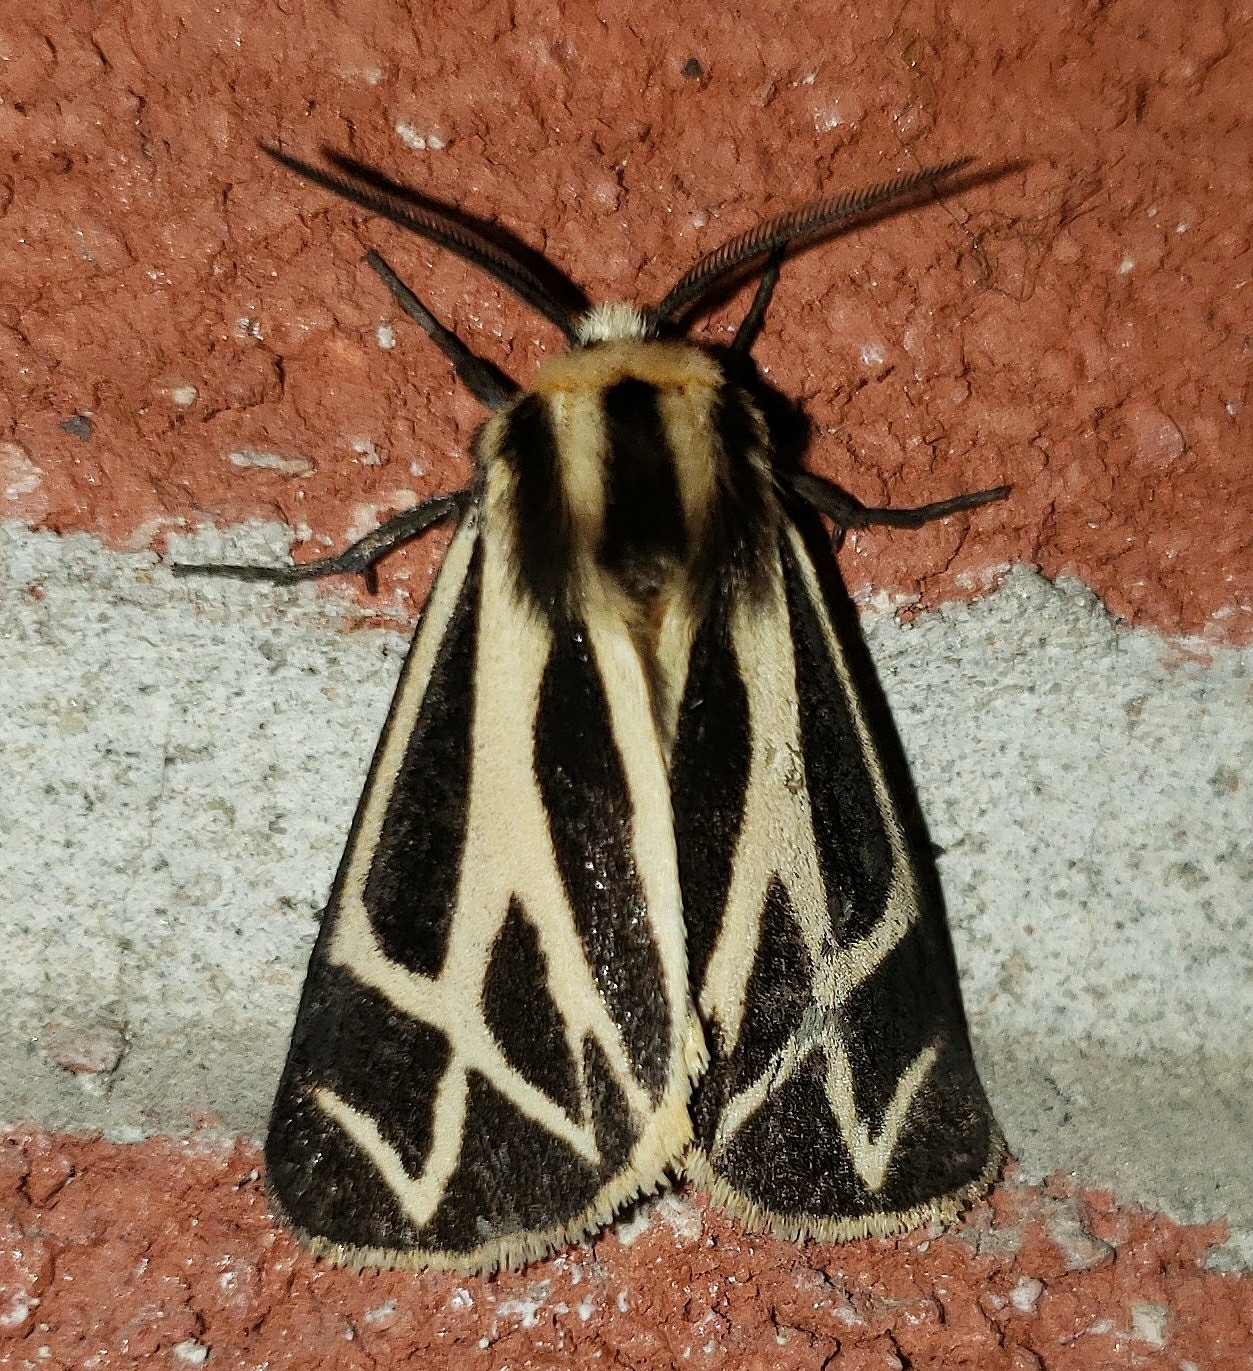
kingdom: Animalia
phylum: Arthropoda
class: Insecta
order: Lepidoptera
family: Erebidae
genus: Apantesis
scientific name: Apantesis phalerata
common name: Harnessed tiger moth
